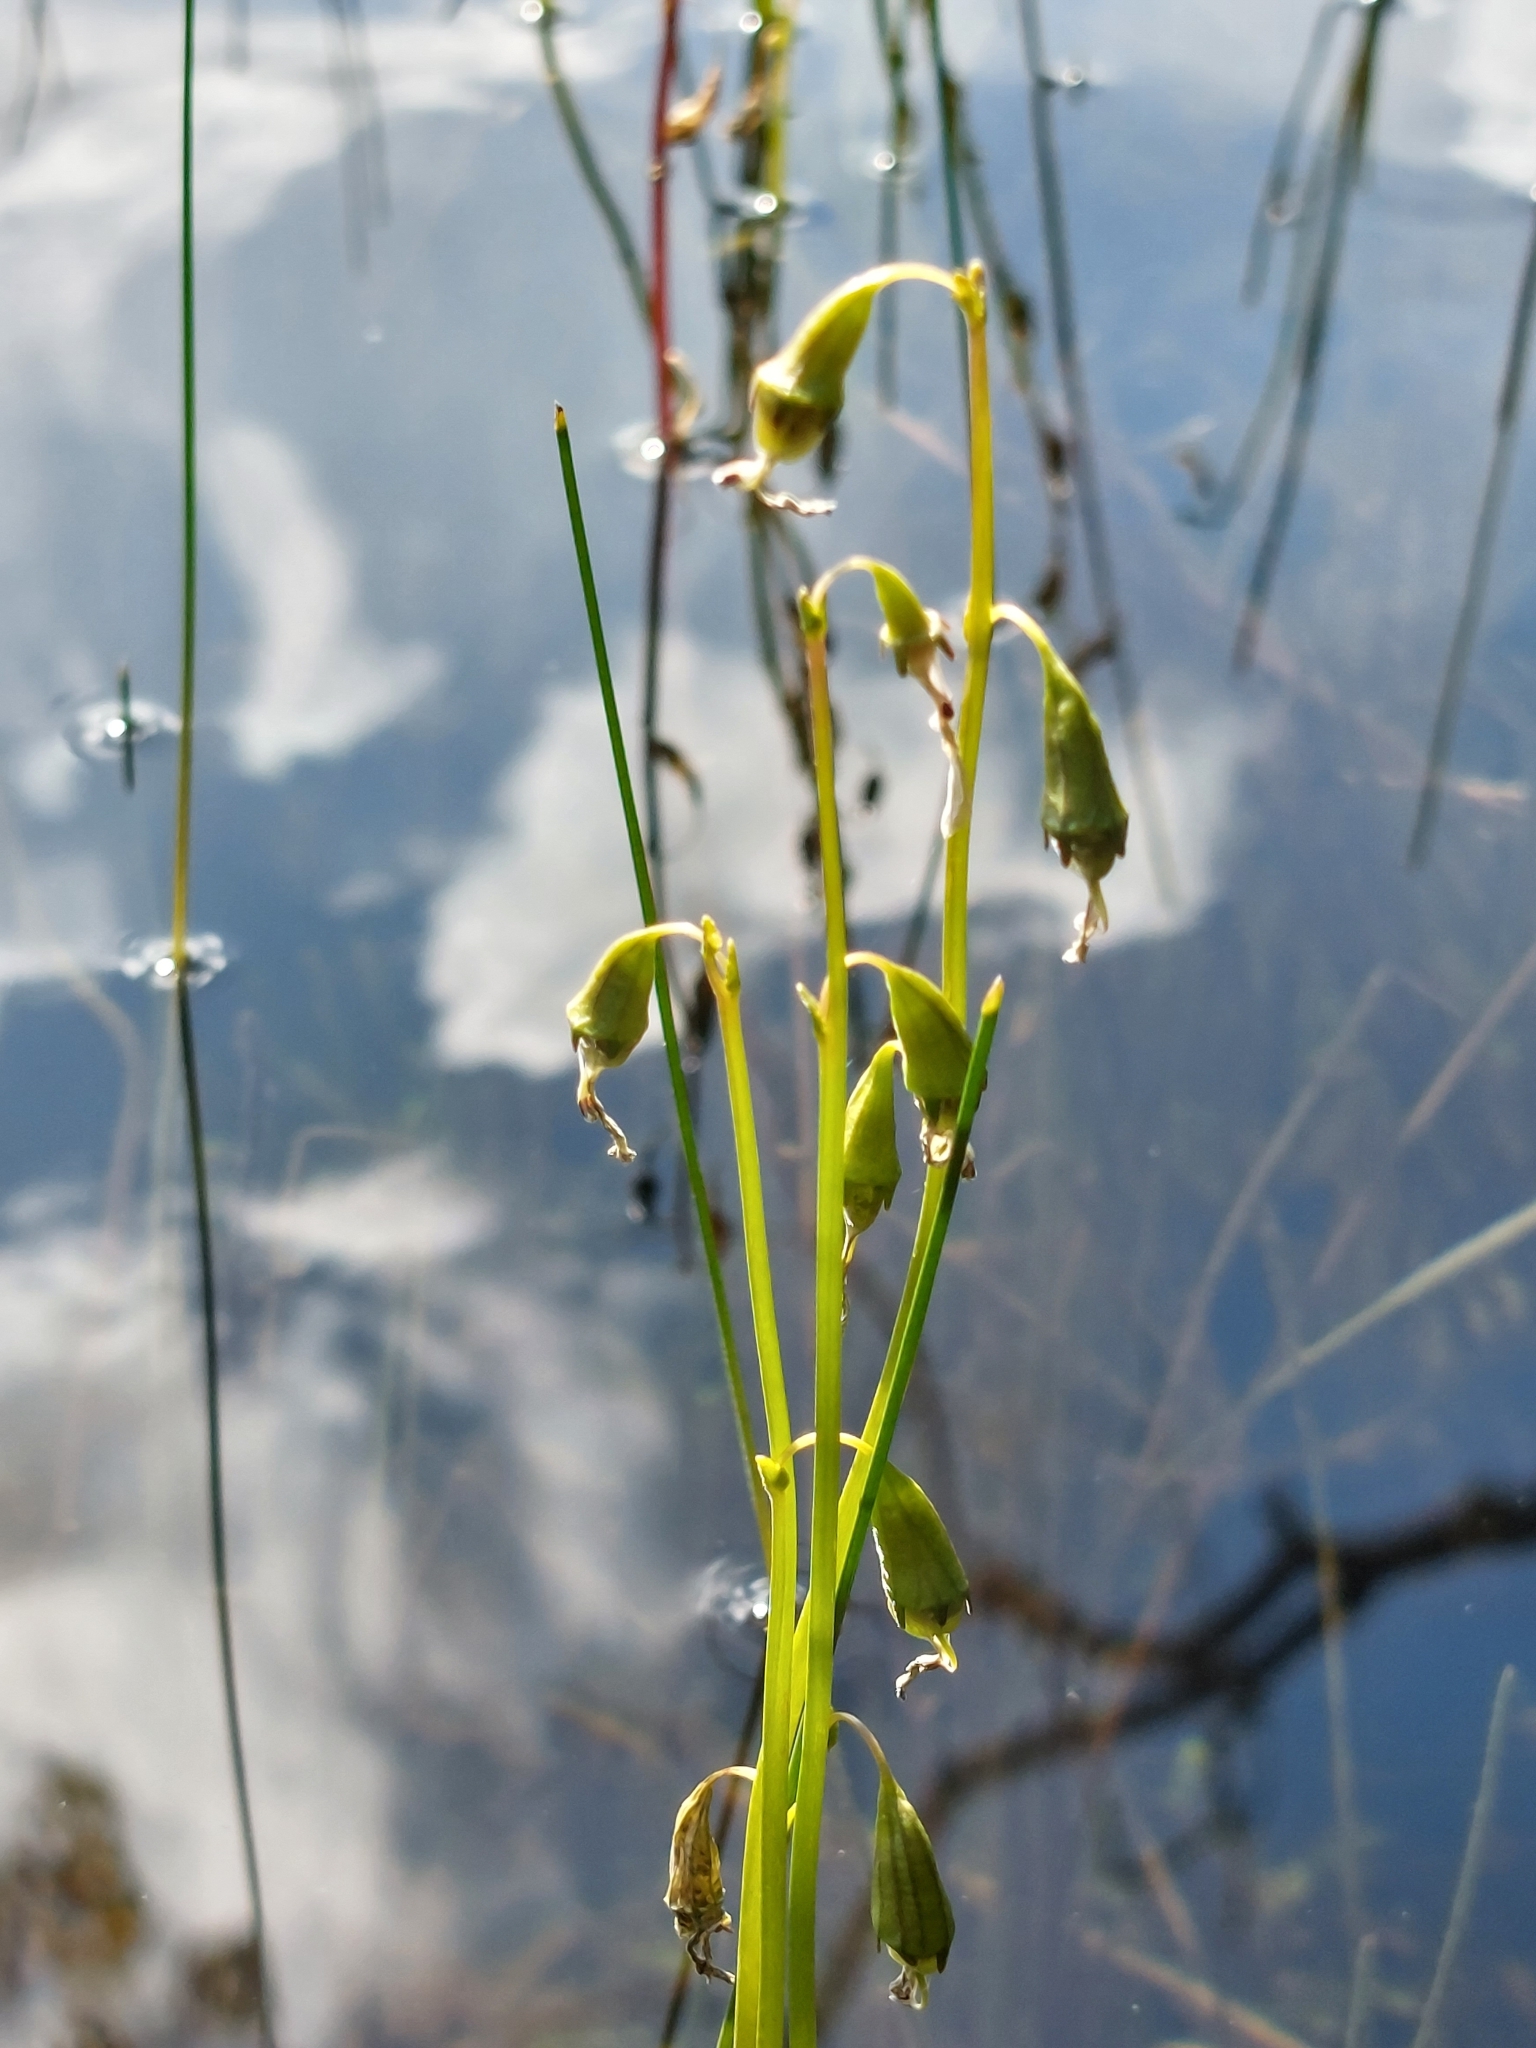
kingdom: Plantae
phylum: Tracheophyta
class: Magnoliopsida
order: Asterales
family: Campanulaceae
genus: Lobelia
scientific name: Lobelia dortmanna
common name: Water lobelia
